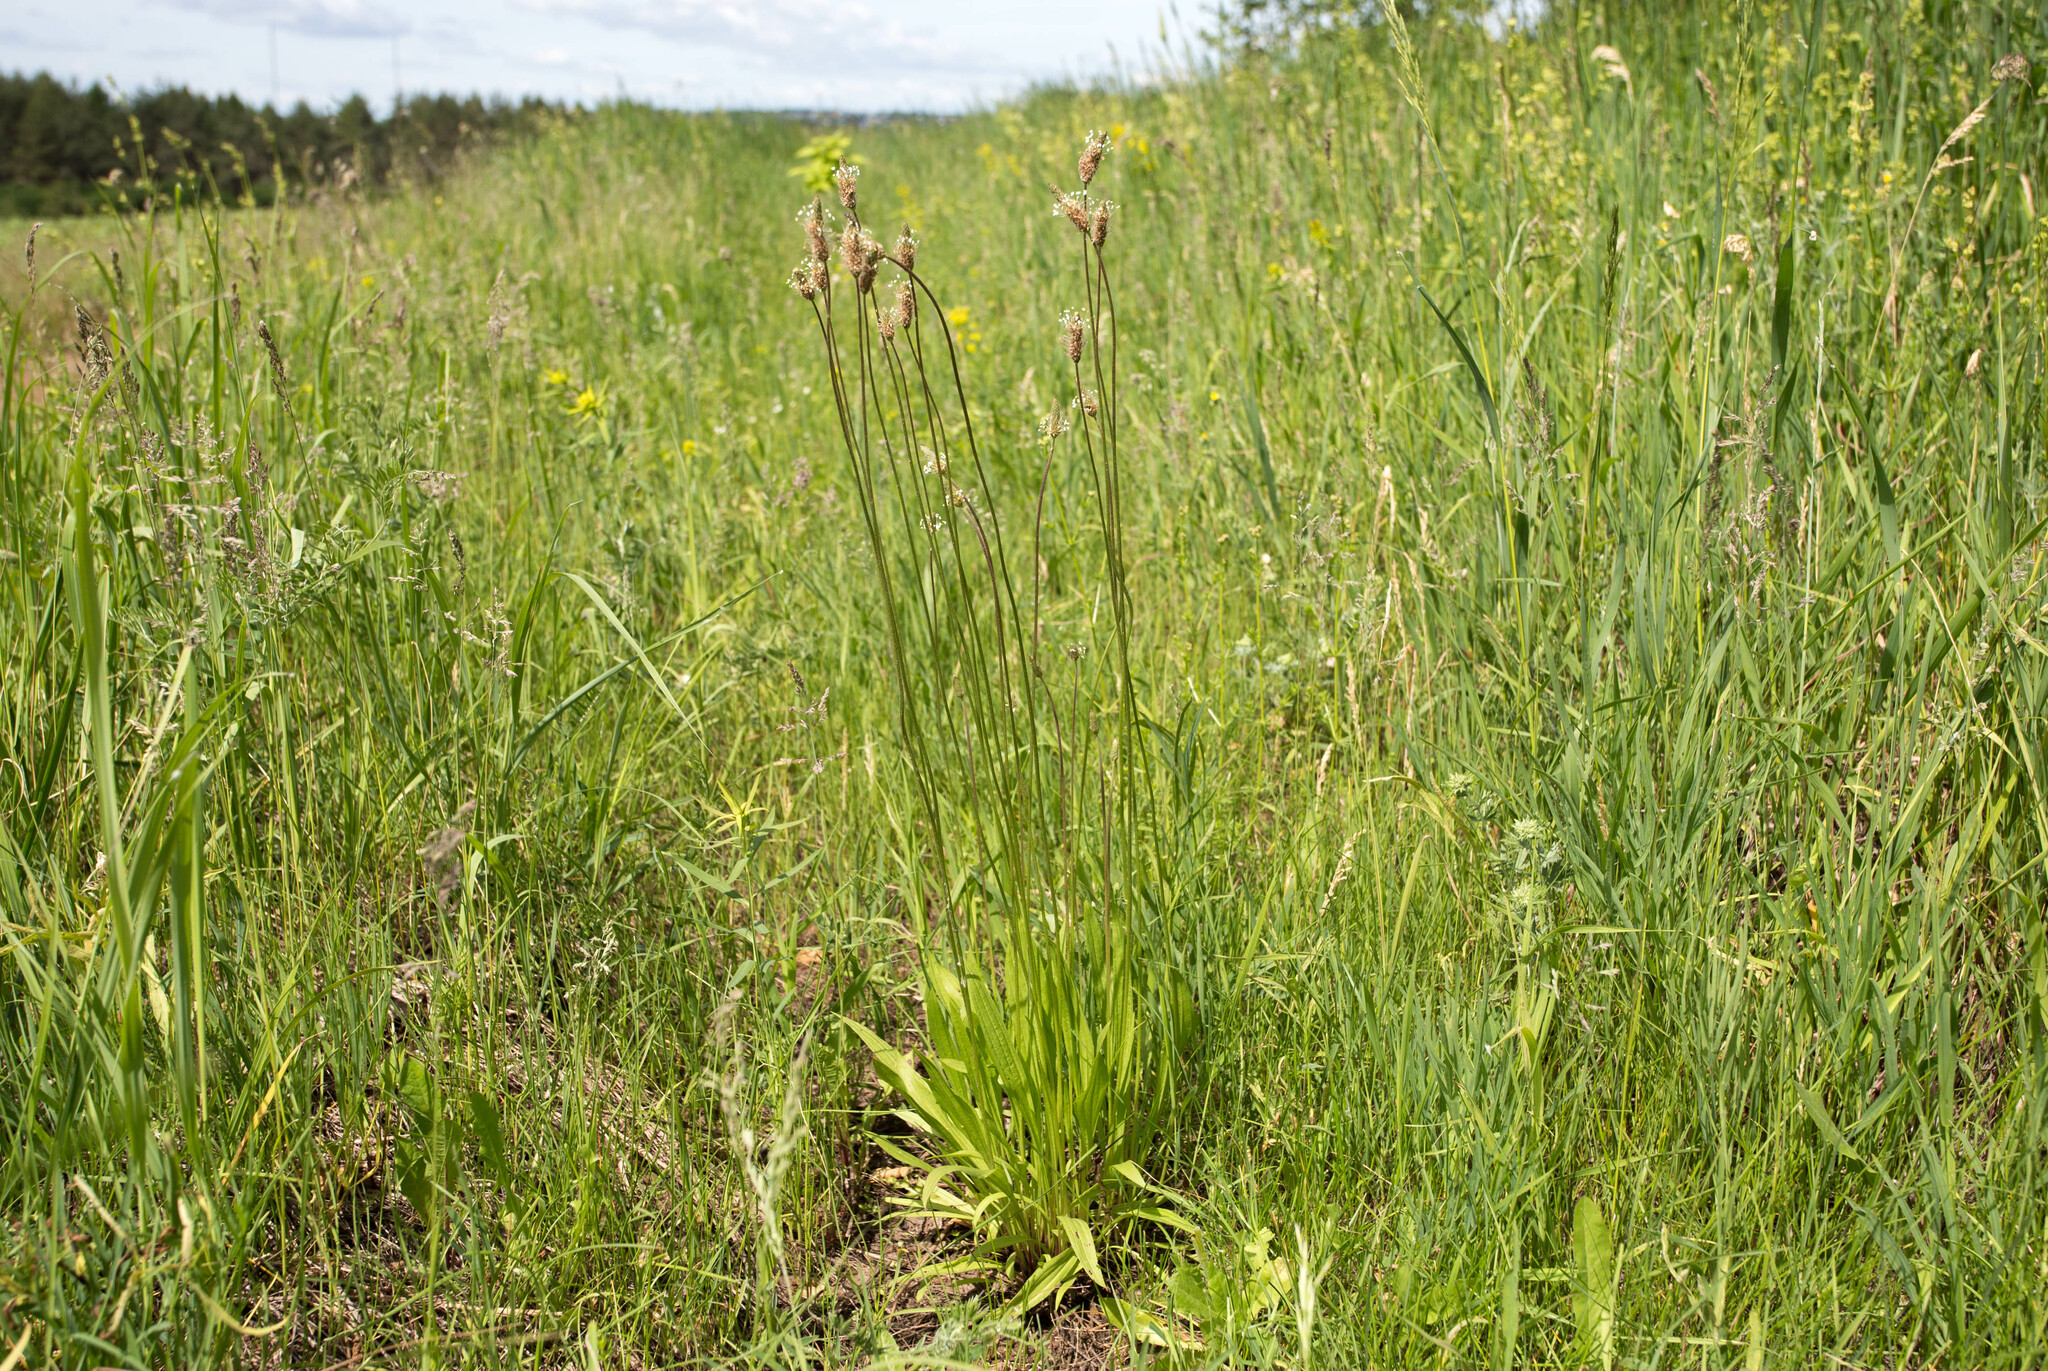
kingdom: Plantae
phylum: Tracheophyta
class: Magnoliopsida
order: Lamiales
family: Plantaginaceae
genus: Plantago
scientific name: Plantago lanceolata
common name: Ribwort plantain
